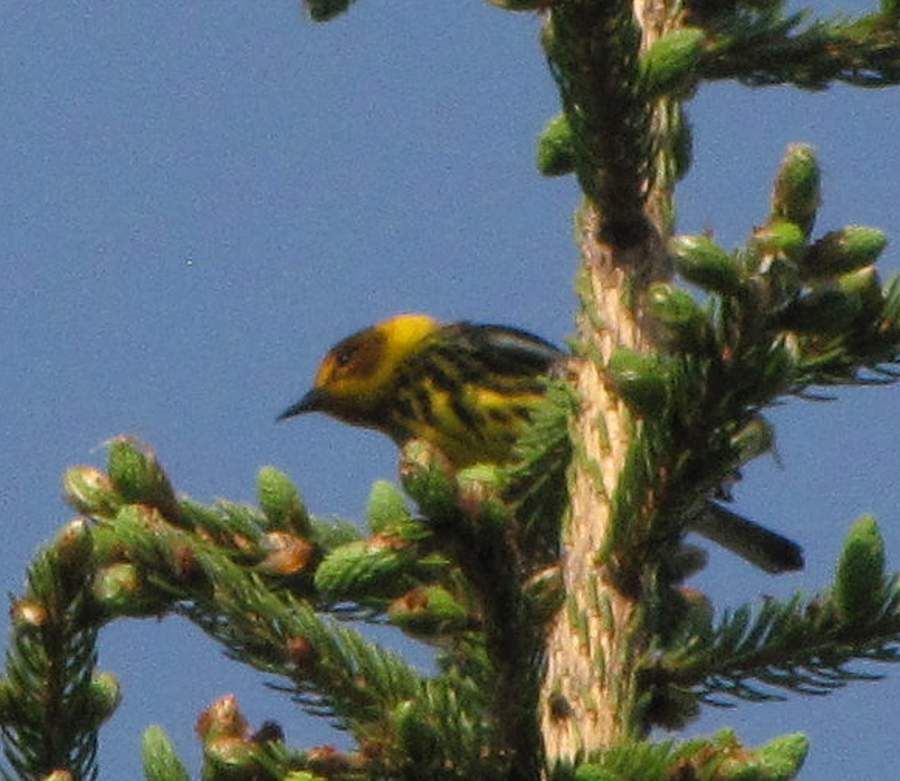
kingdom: Animalia
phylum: Chordata
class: Aves
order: Passeriformes
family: Parulidae
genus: Setophaga
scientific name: Setophaga tigrina
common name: Cape may warbler
